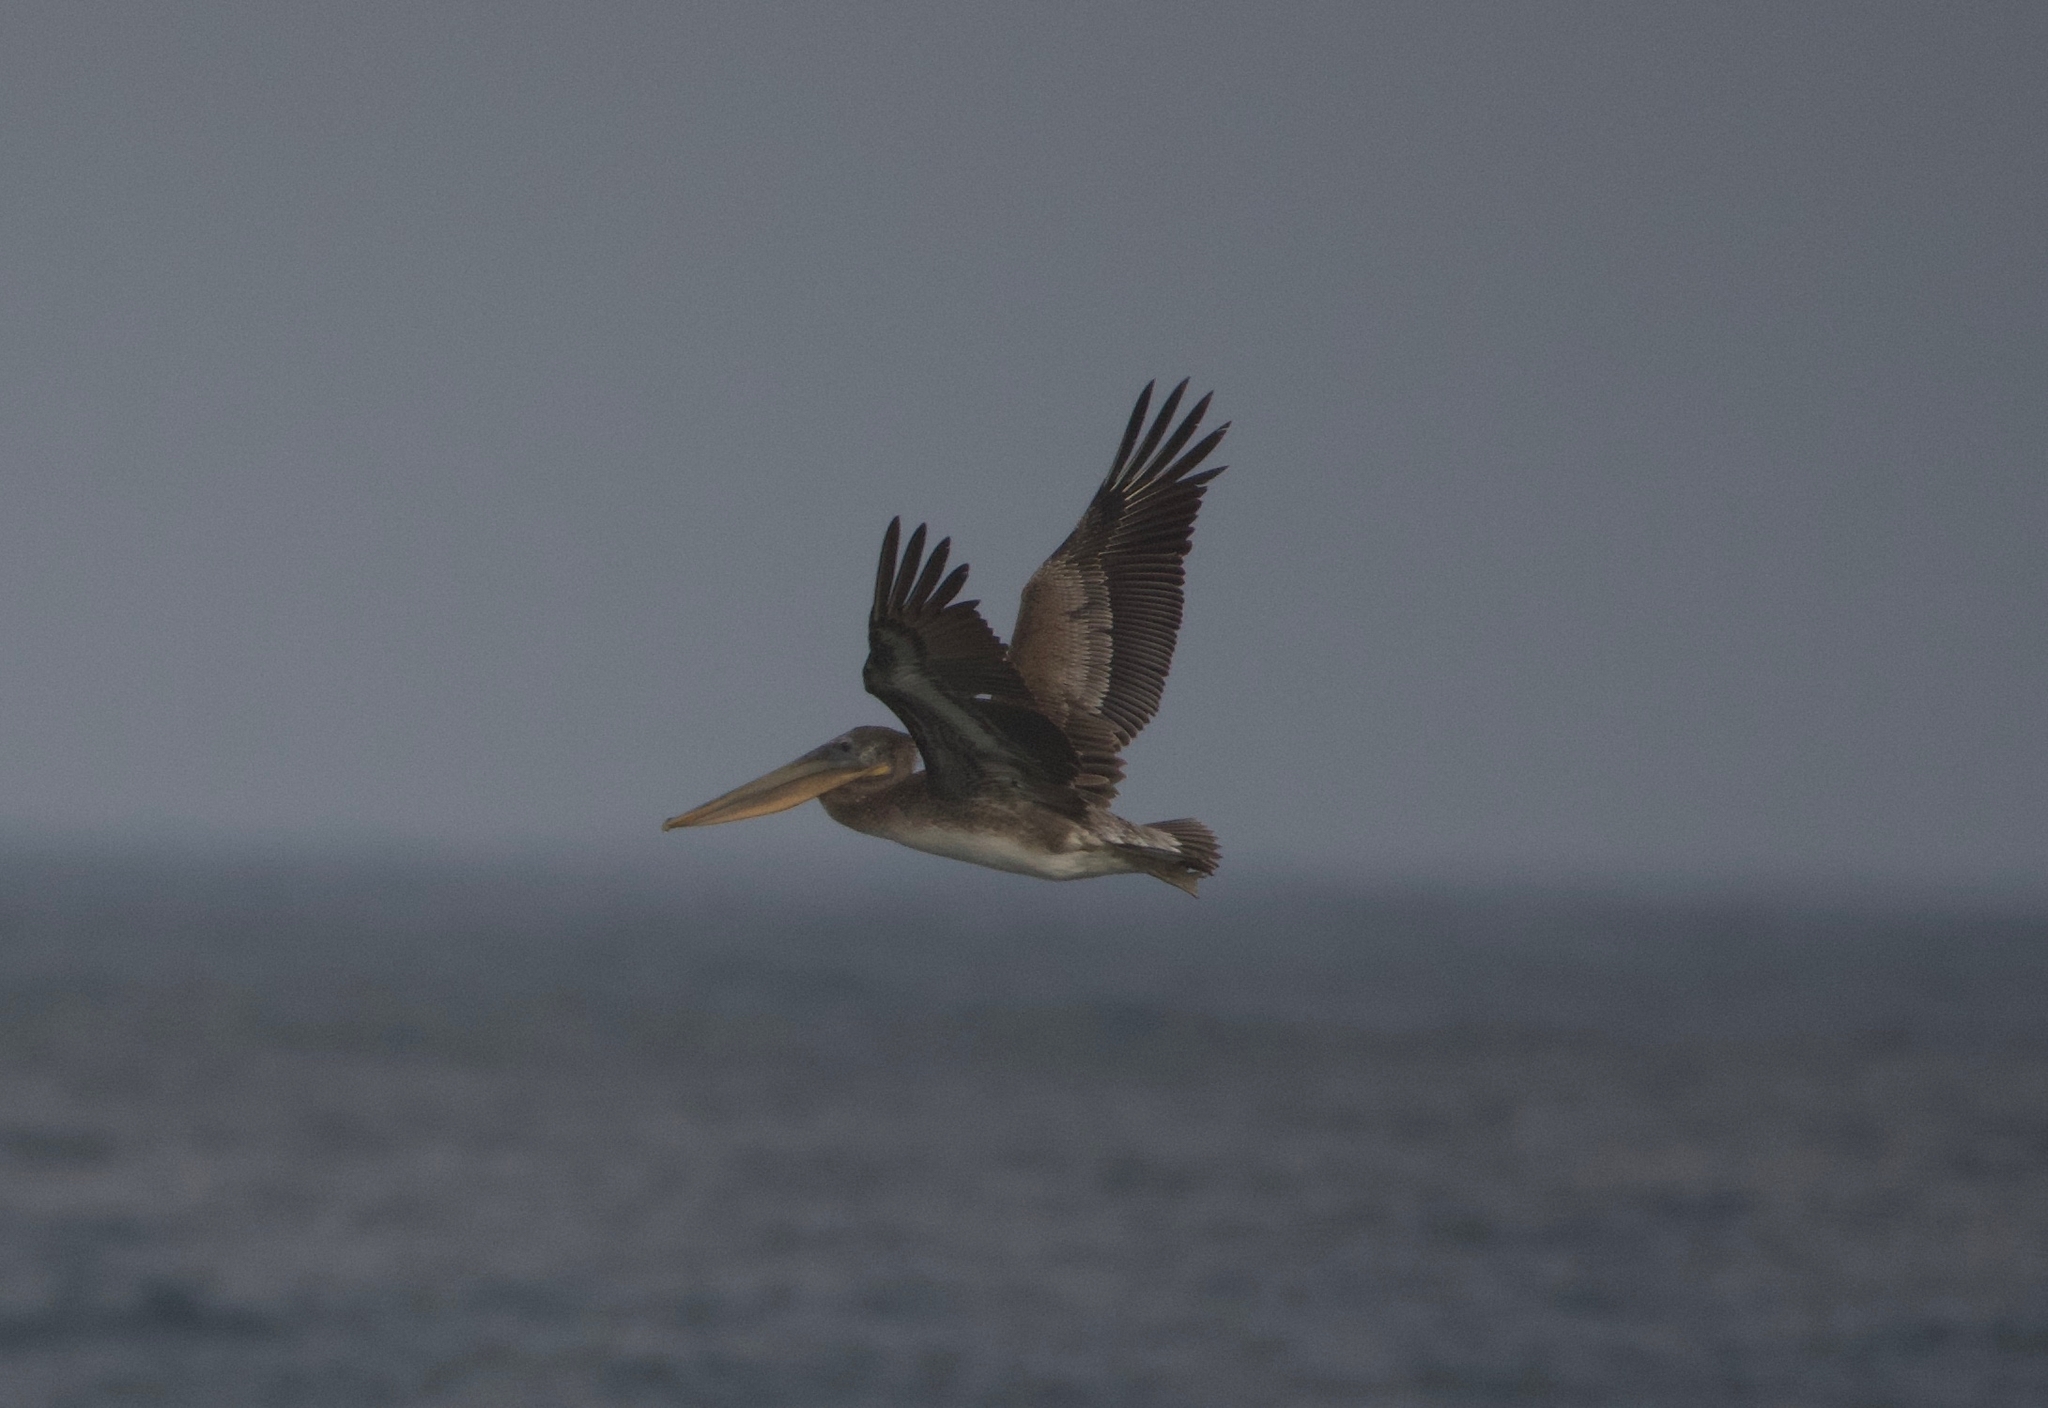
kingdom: Animalia
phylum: Chordata
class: Aves
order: Pelecaniformes
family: Pelecanidae
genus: Pelecanus
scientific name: Pelecanus occidentalis
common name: Brown pelican
